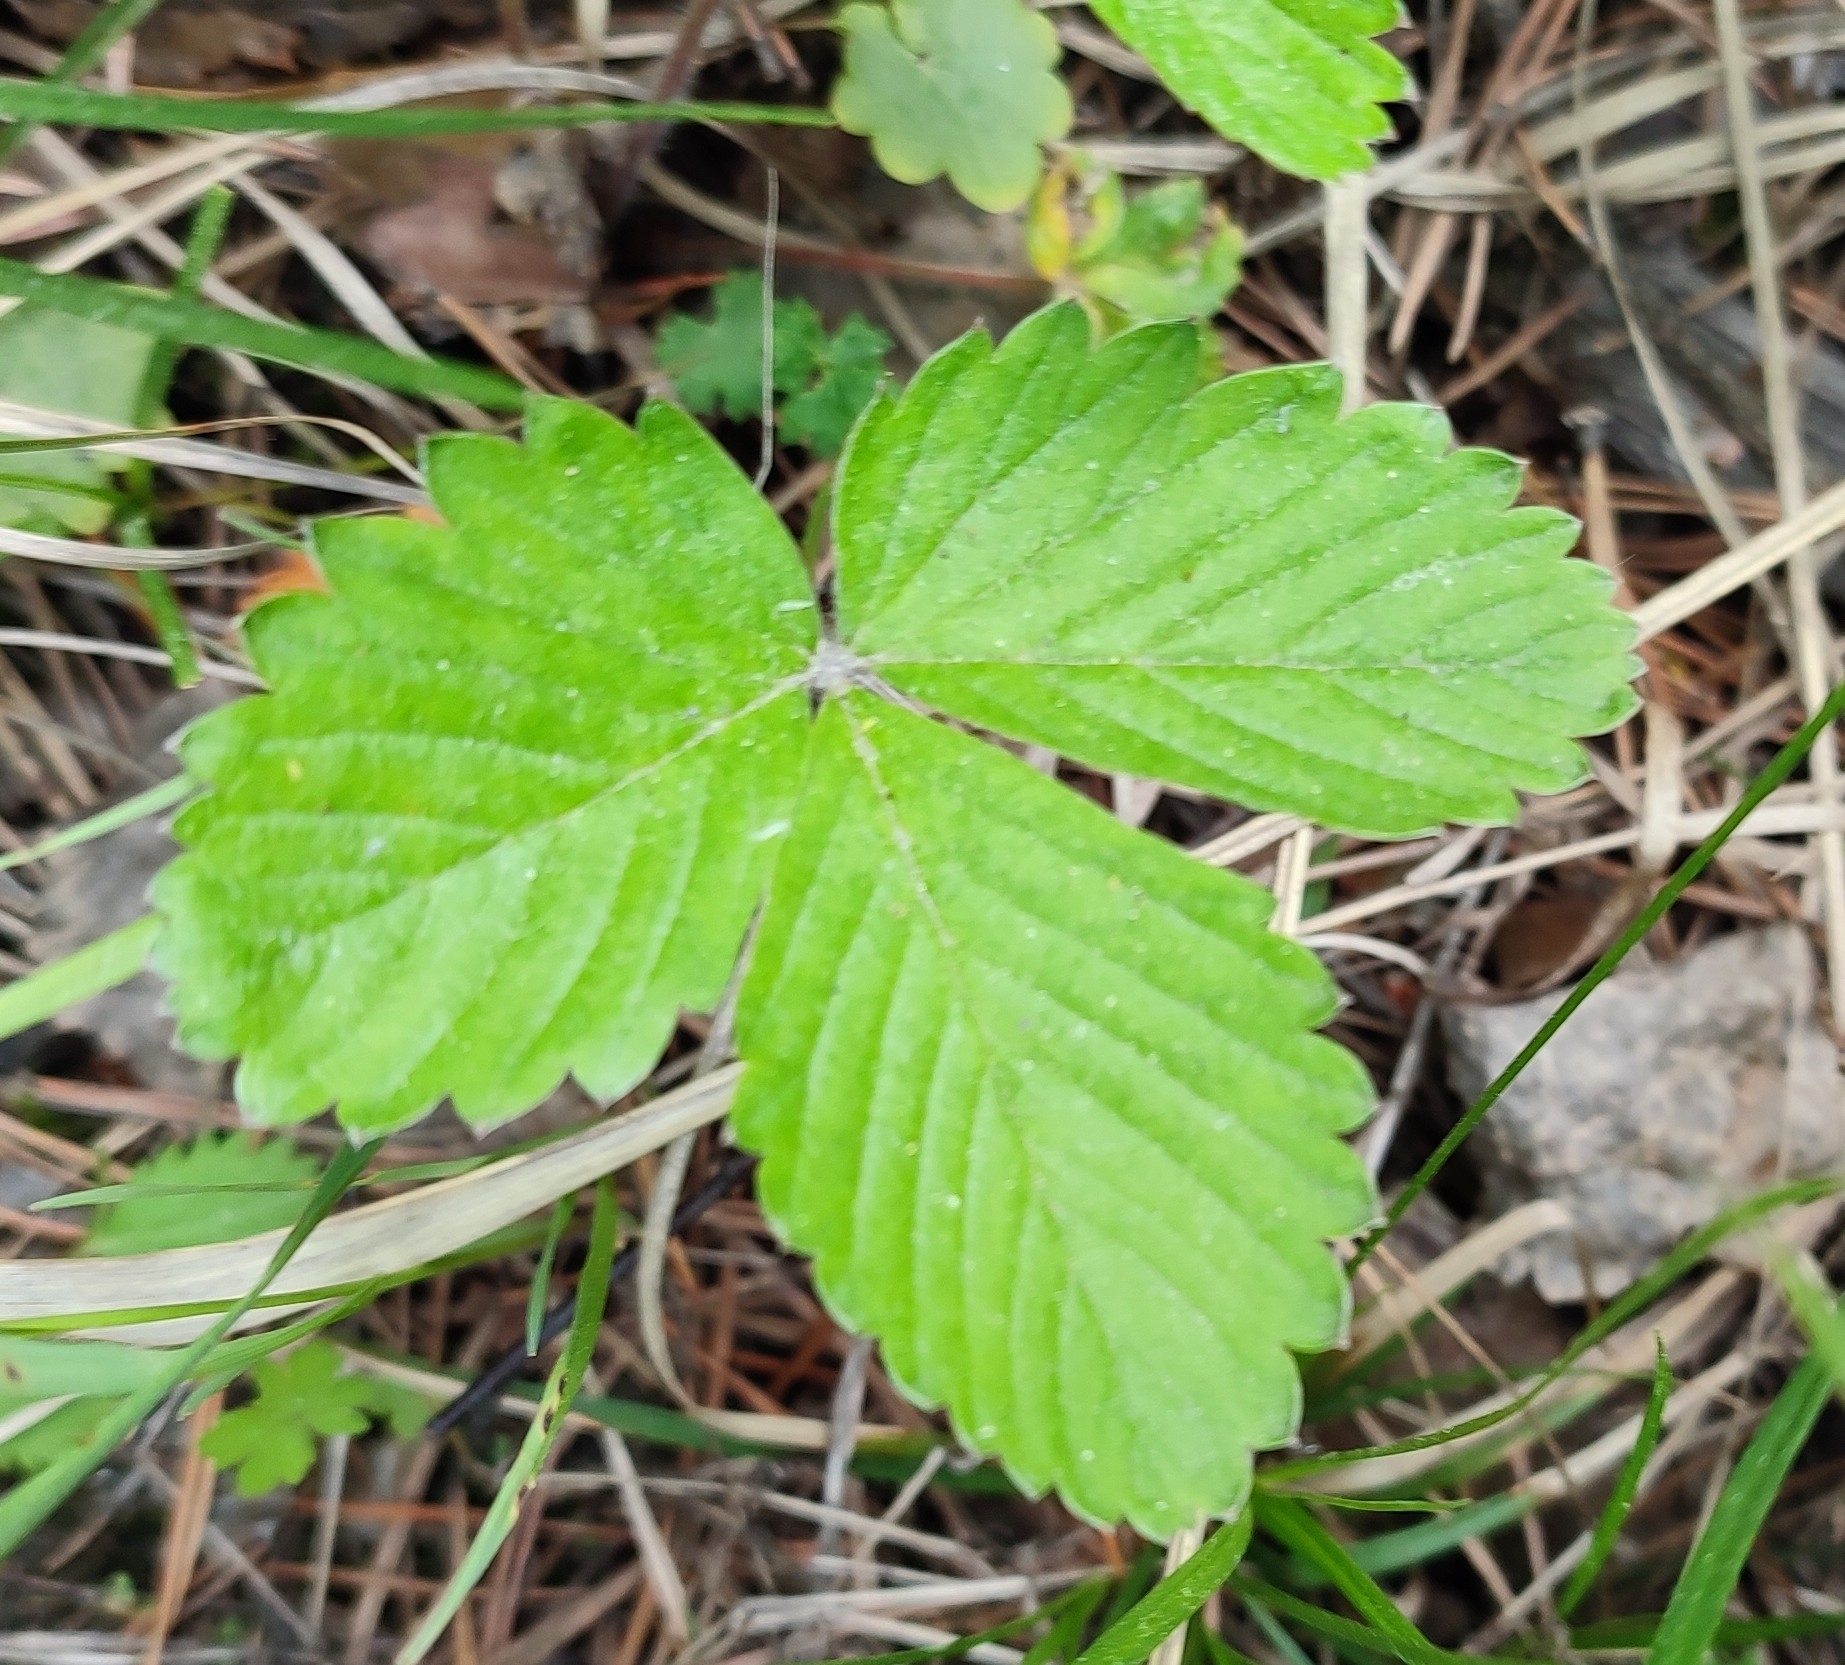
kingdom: Plantae
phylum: Tracheophyta
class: Magnoliopsida
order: Rosales
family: Rosaceae
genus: Fragaria
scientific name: Fragaria vesca
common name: Wild strawberry
